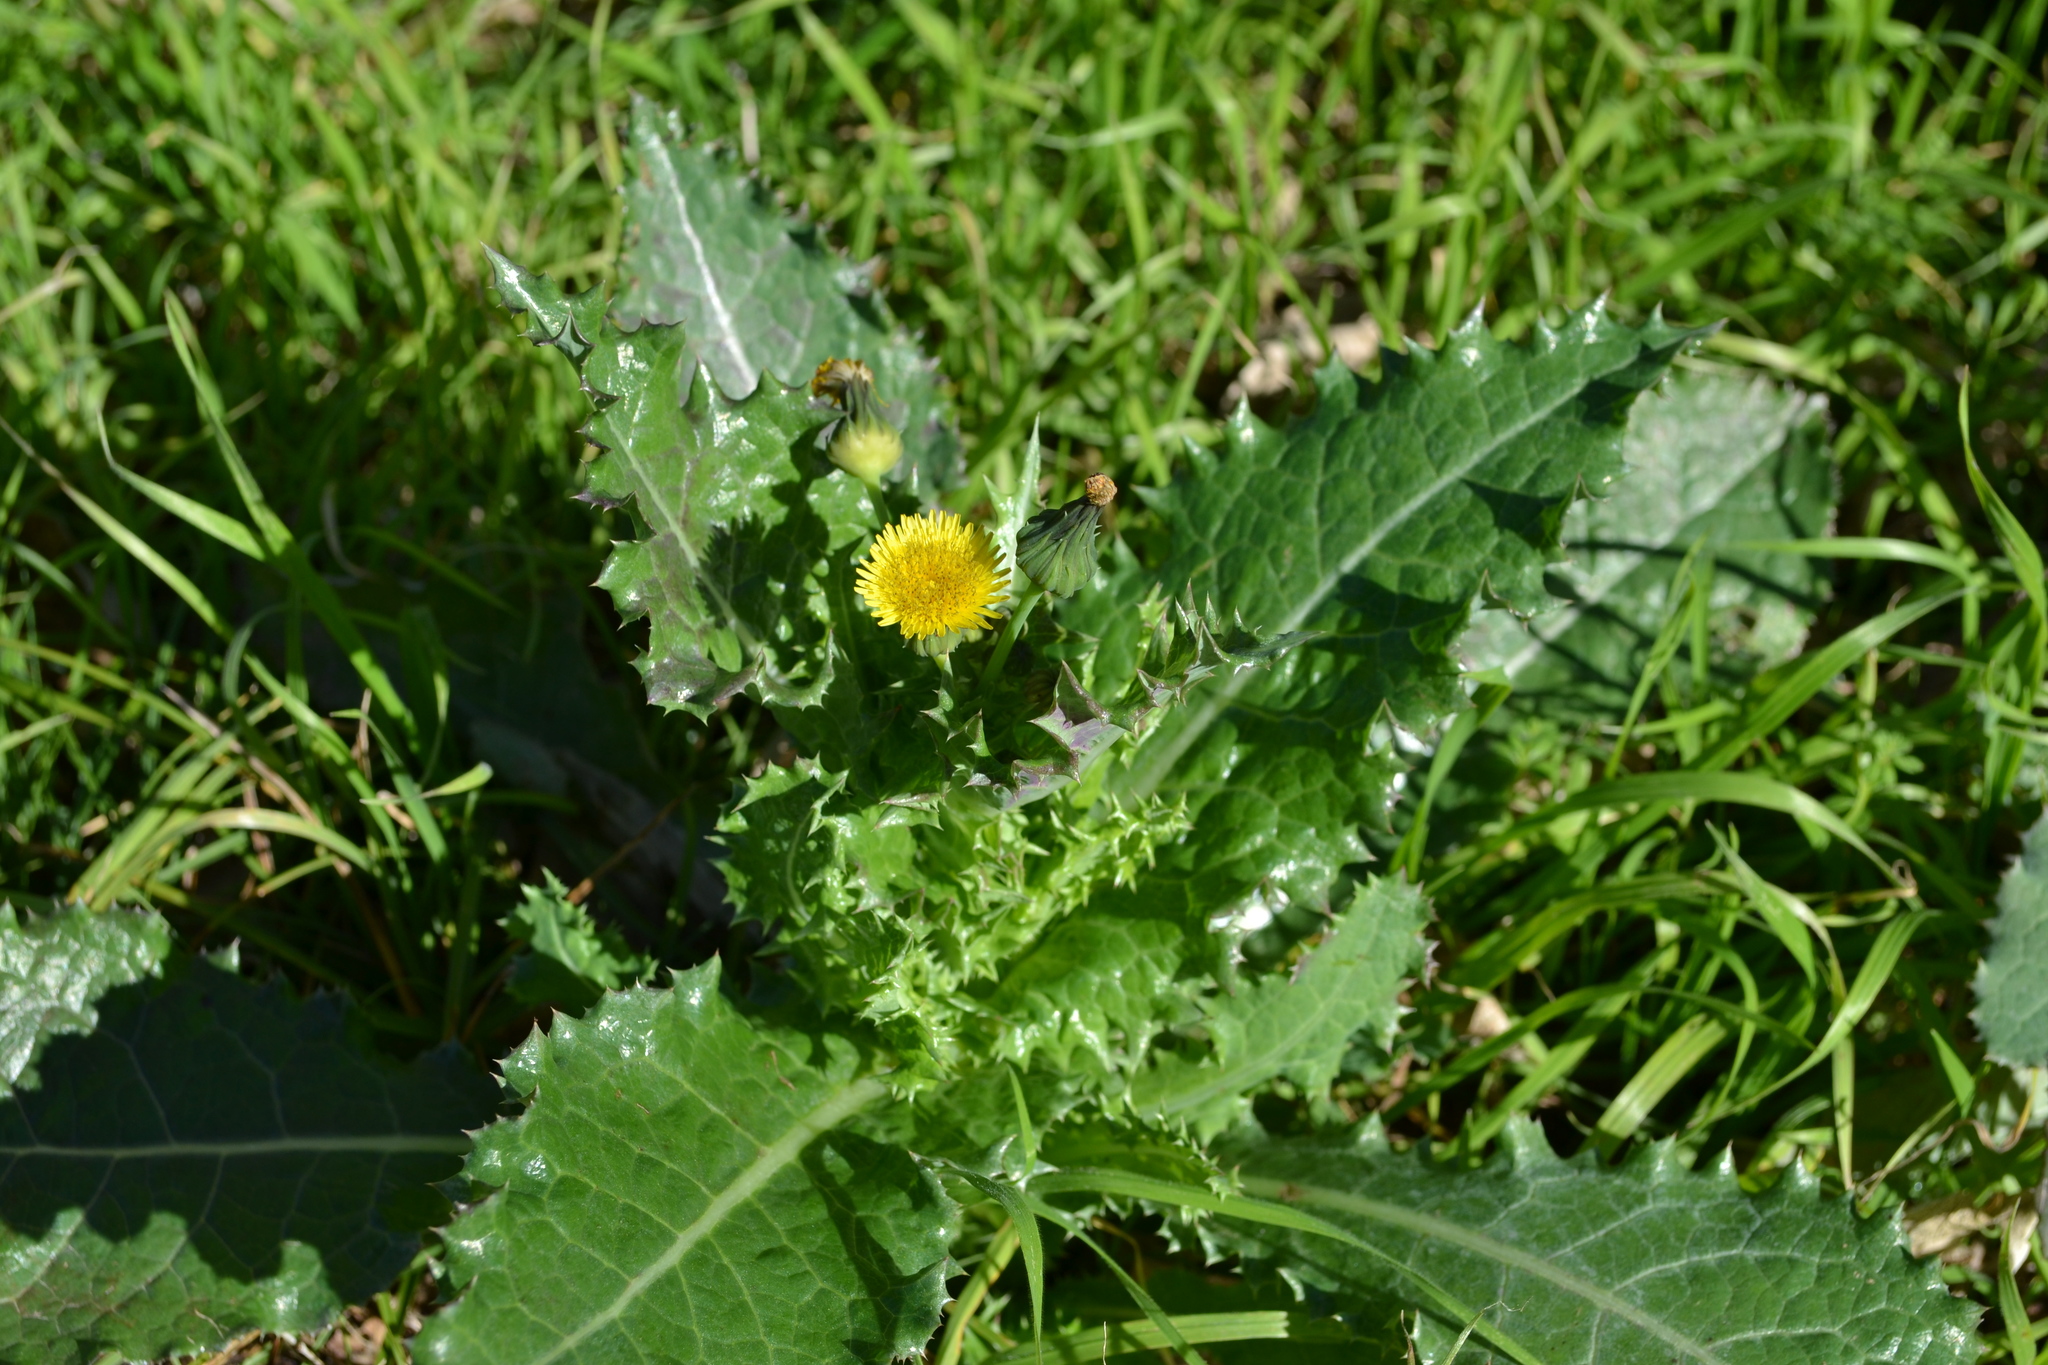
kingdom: Plantae
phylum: Tracheophyta
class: Magnoliopsida
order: Asterales
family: Asteraceae
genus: Sonchus
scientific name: Sonchus asper
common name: Prickly sow-thistle
